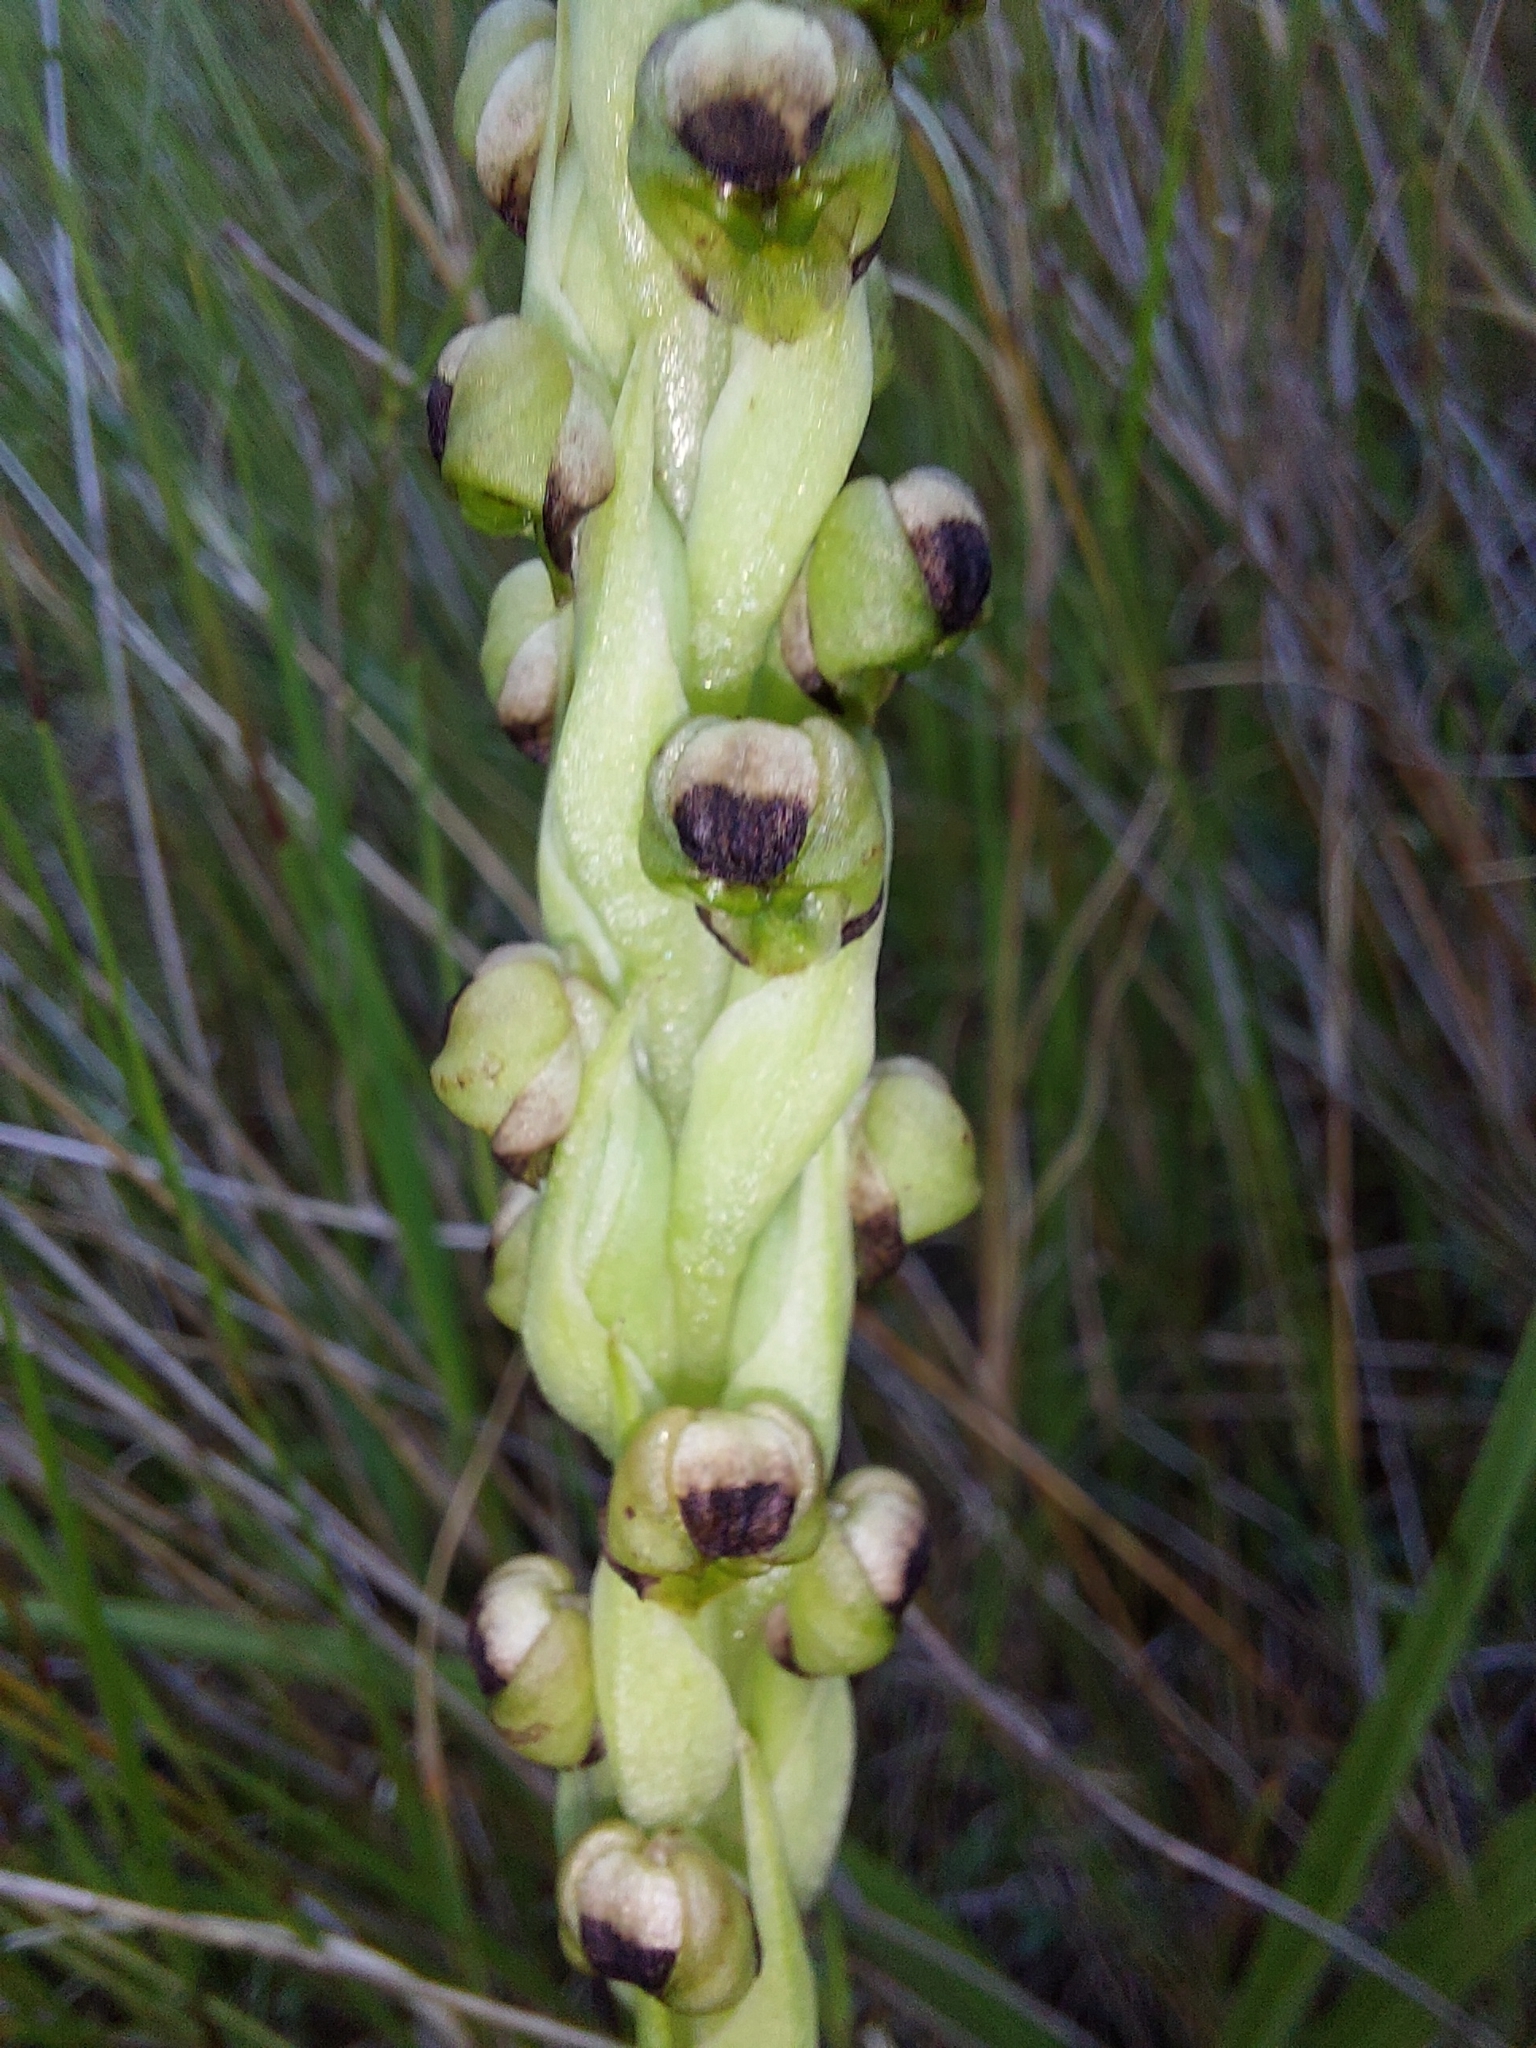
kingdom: Plantae
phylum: Tracheophyta
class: Liliopsida
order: Asparagales
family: Orchidaceae
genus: Corycium
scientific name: Corycium dracomontanum
